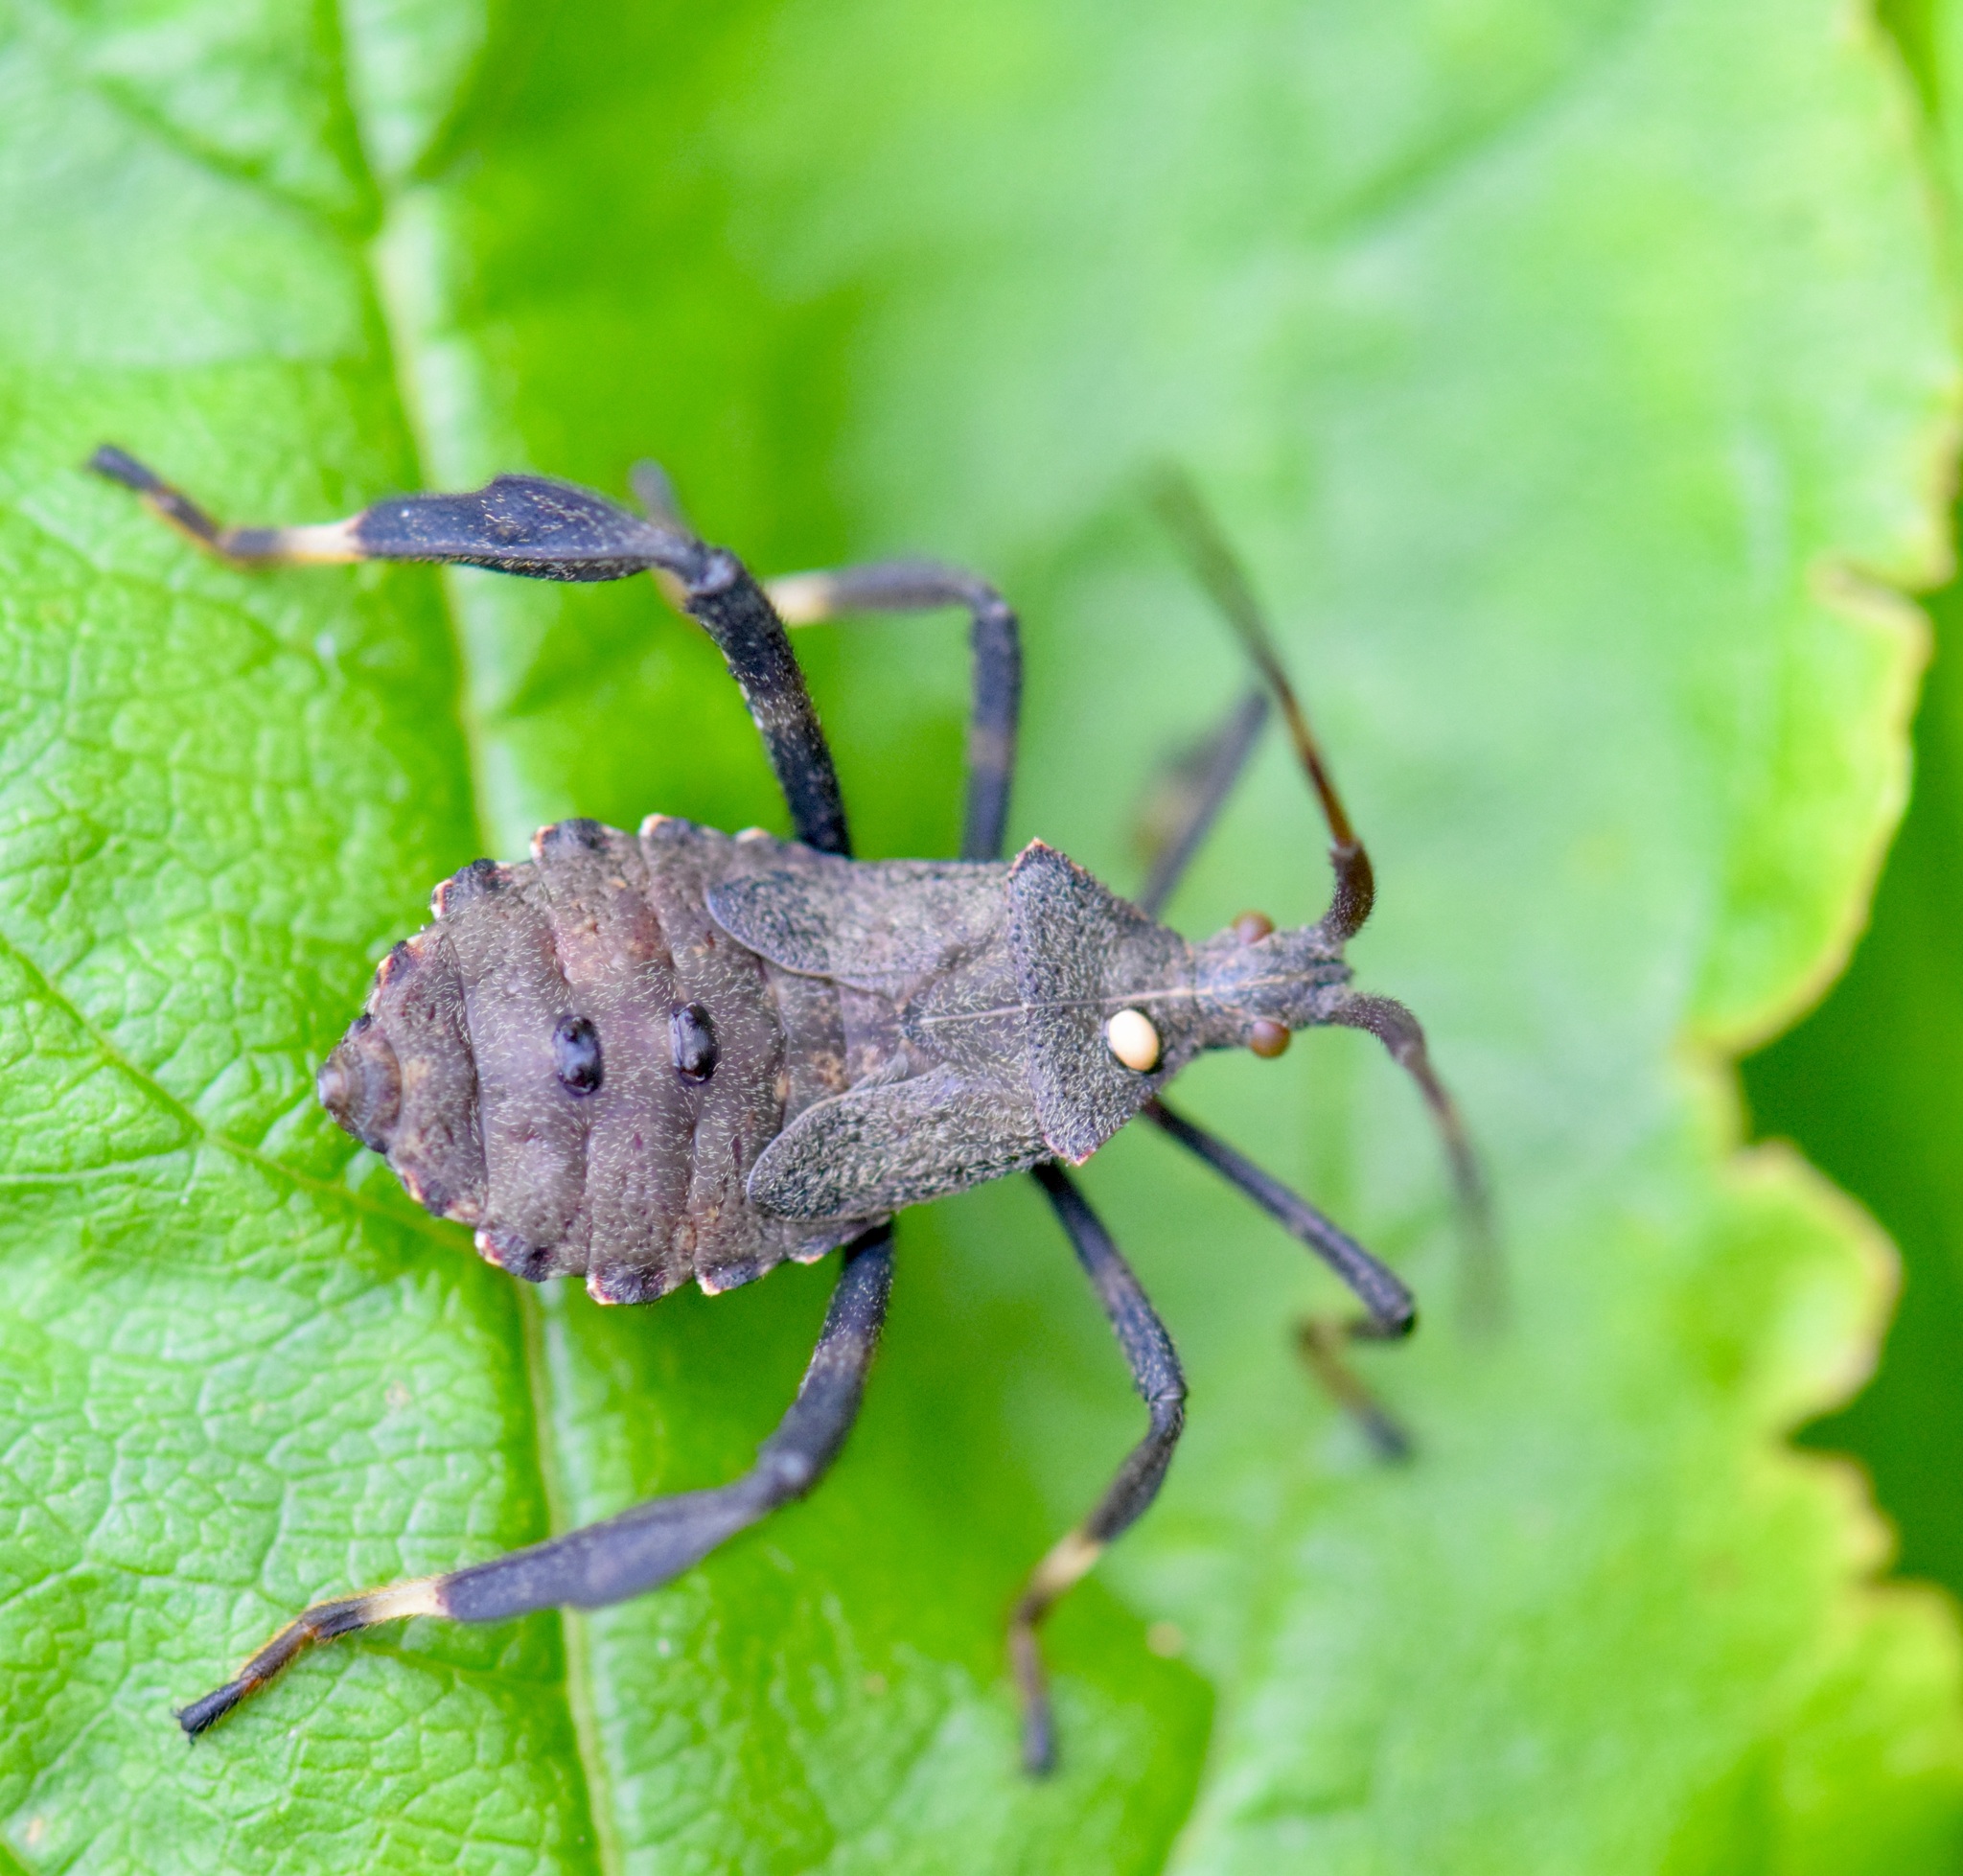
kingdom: Animalia
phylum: Arthropoda
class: Insecta
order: Hemiptera
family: Coreidae
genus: Acanthocephala
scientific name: Acanthocephala terminalis
